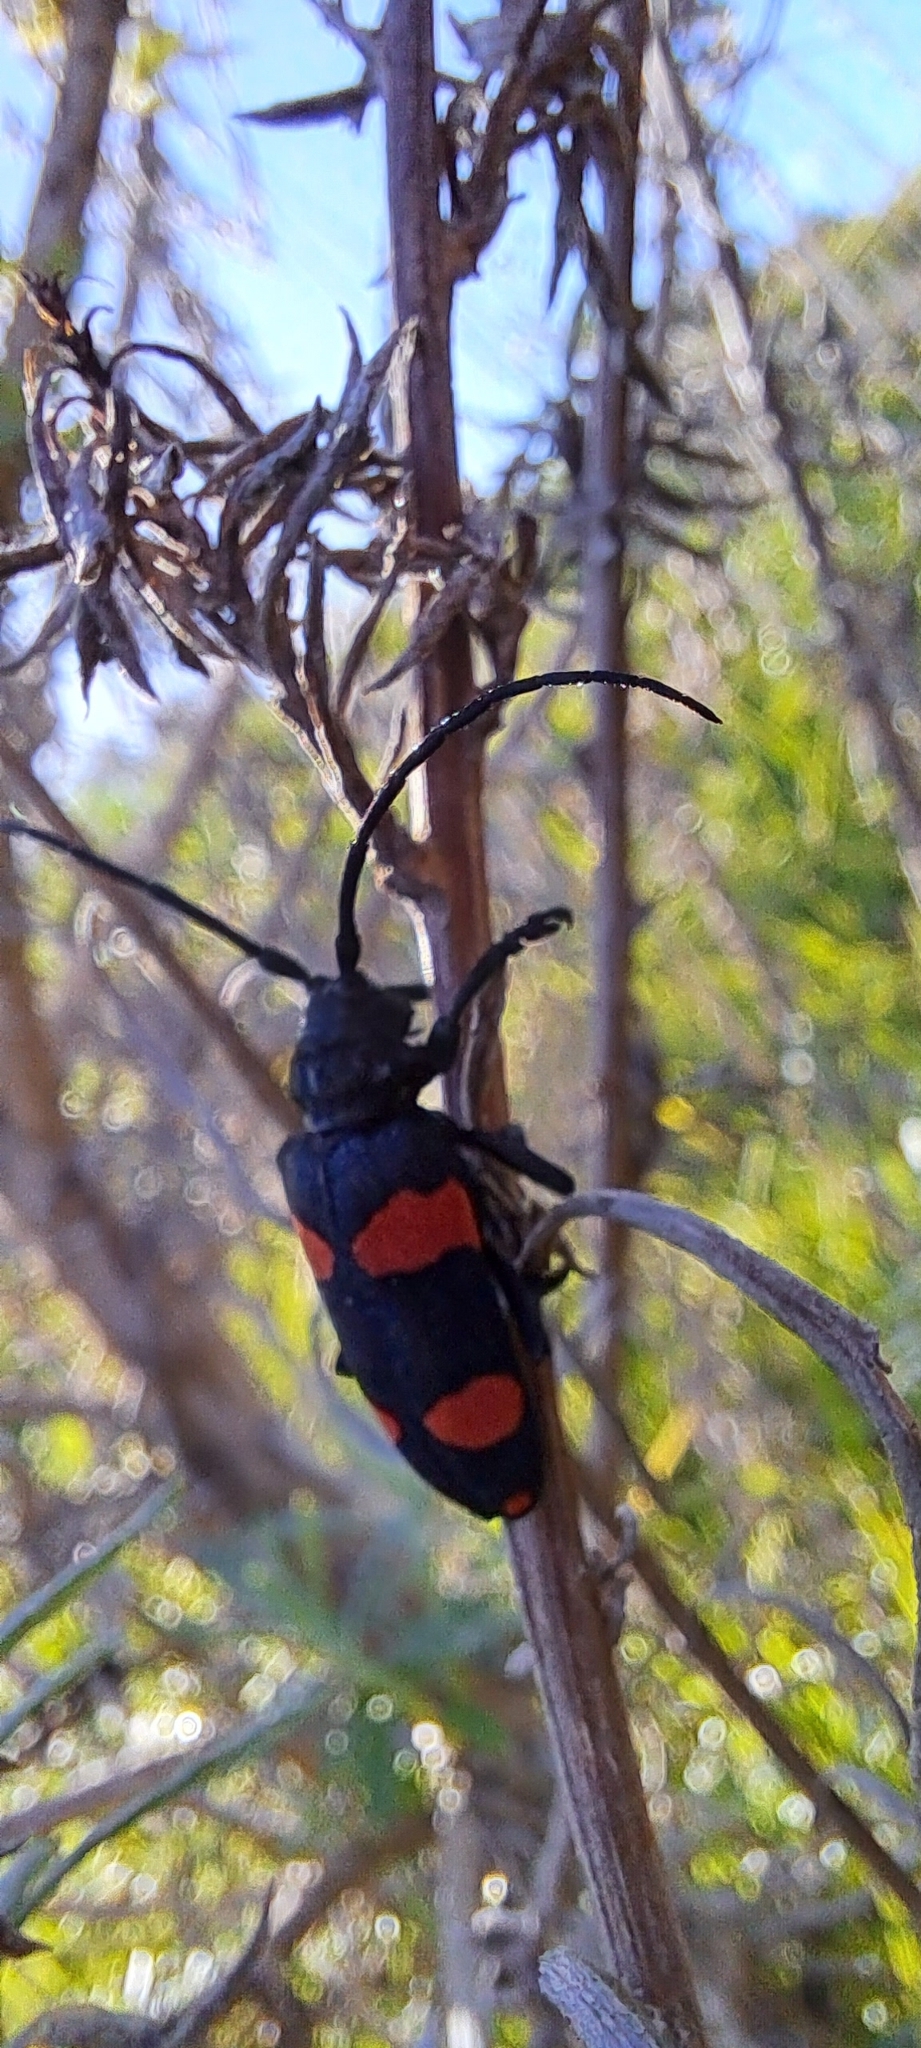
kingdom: Animalia
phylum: Arthropoda
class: Insecta
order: Coleoptera
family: Cerambycidae
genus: Ceroplesis
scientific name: Ceroplesis aethiops
